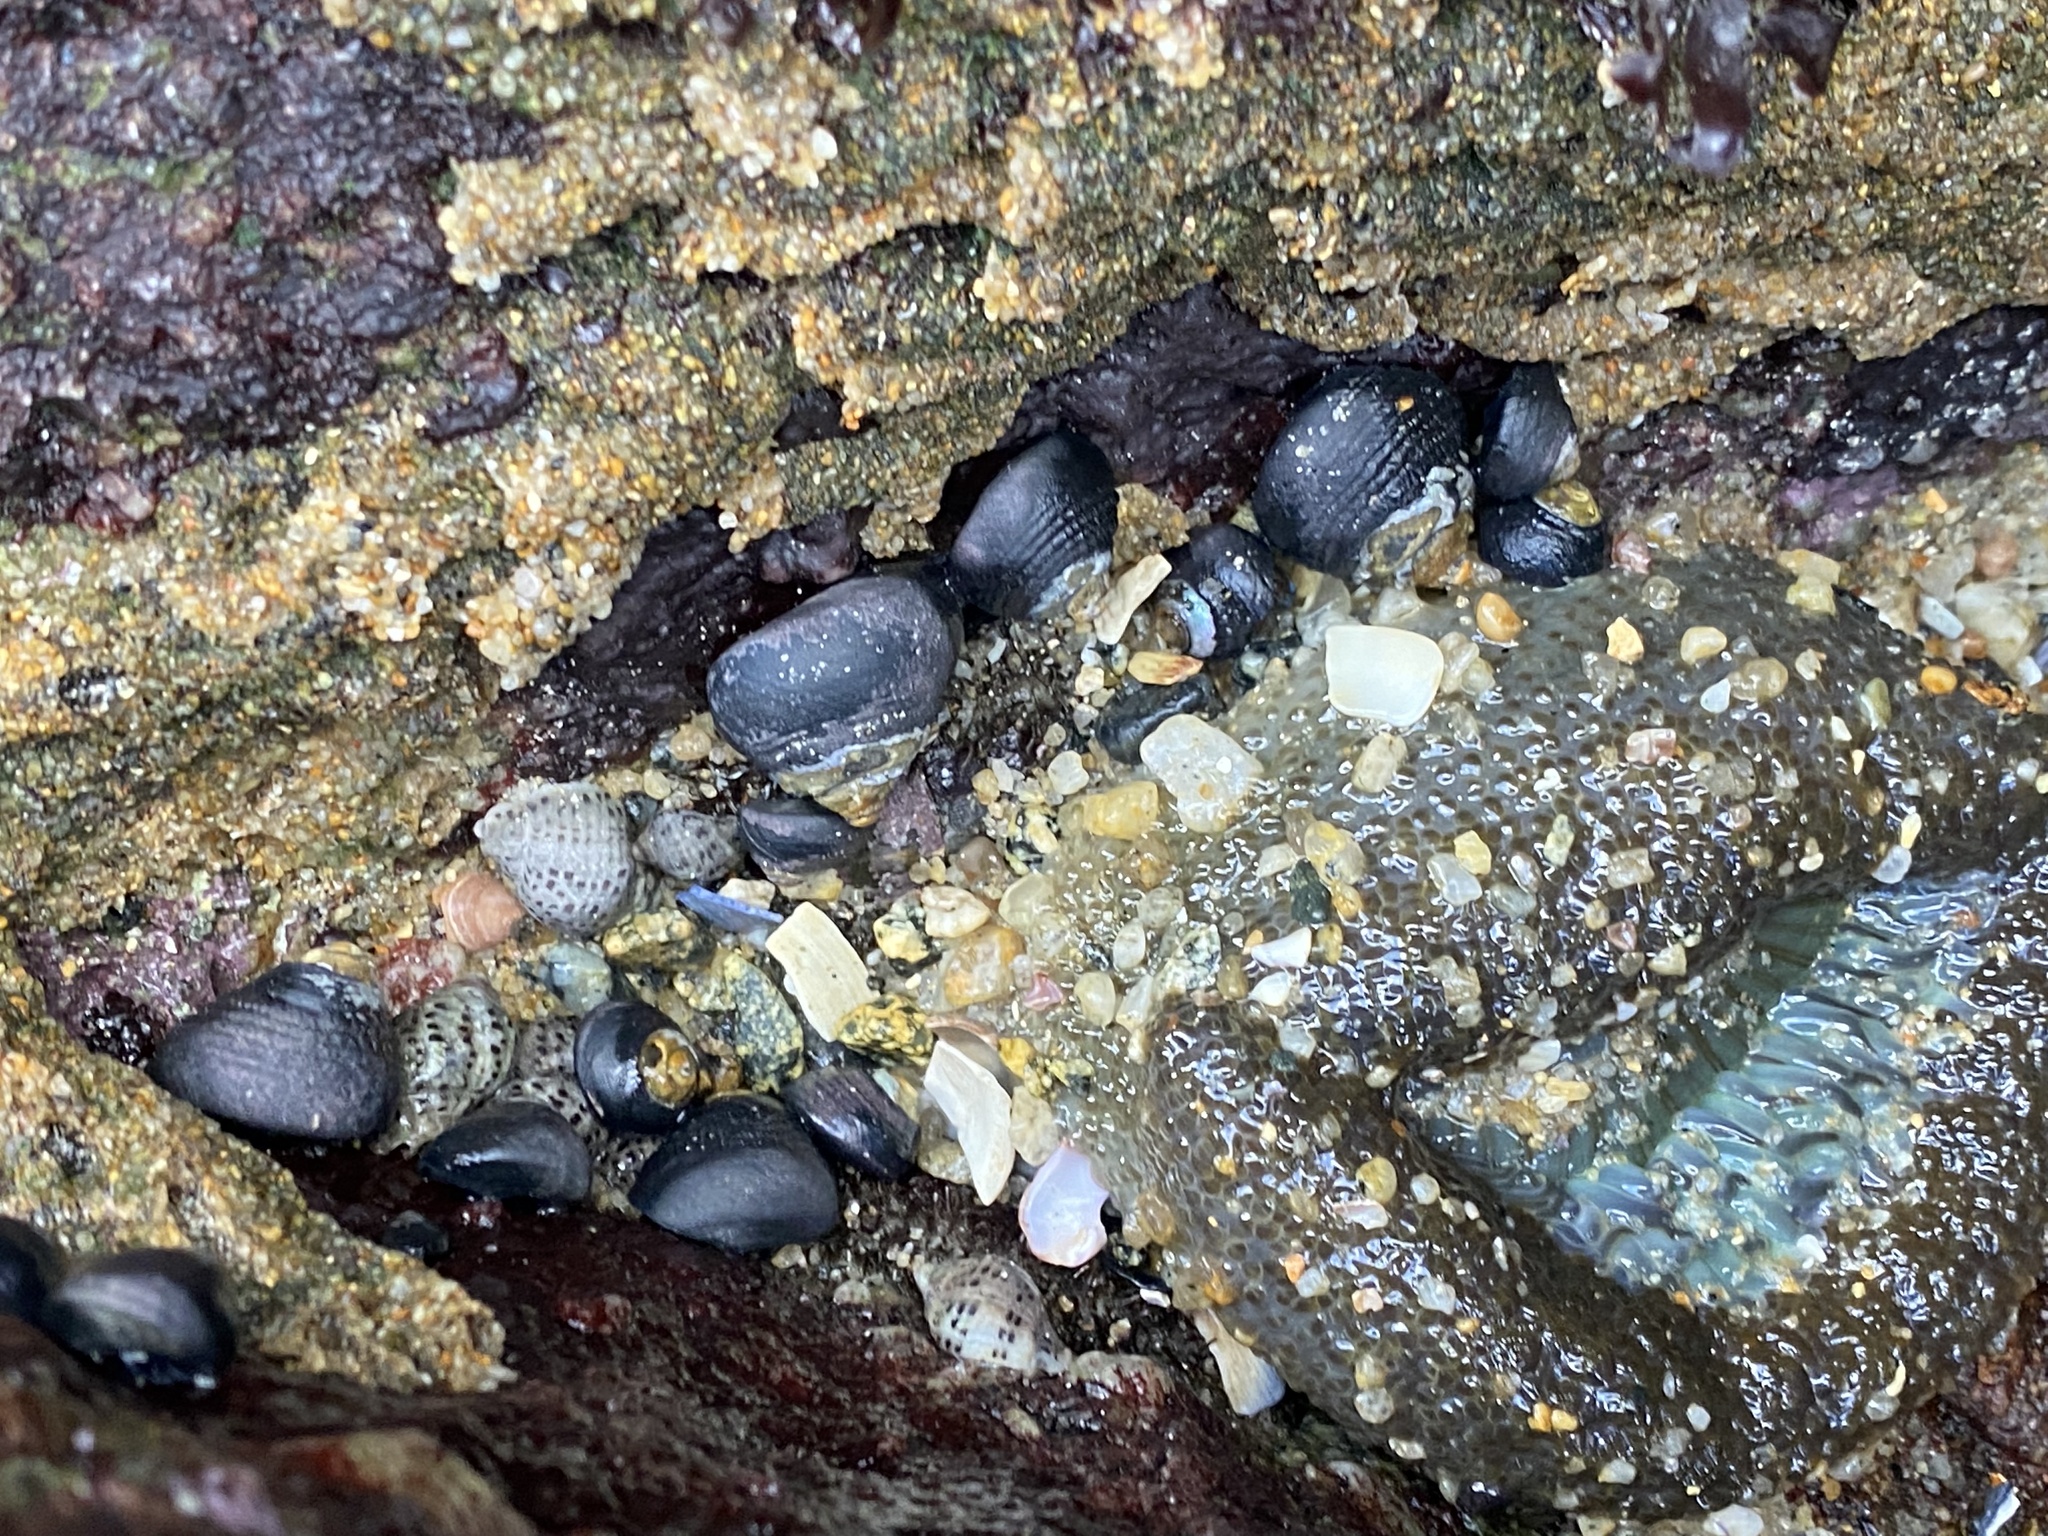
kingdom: Animalia
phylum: Mollusca
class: Gastropoda
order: Trochida
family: Tegulidae
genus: Tegula
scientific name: Tegula funebralis
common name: Black tegula
